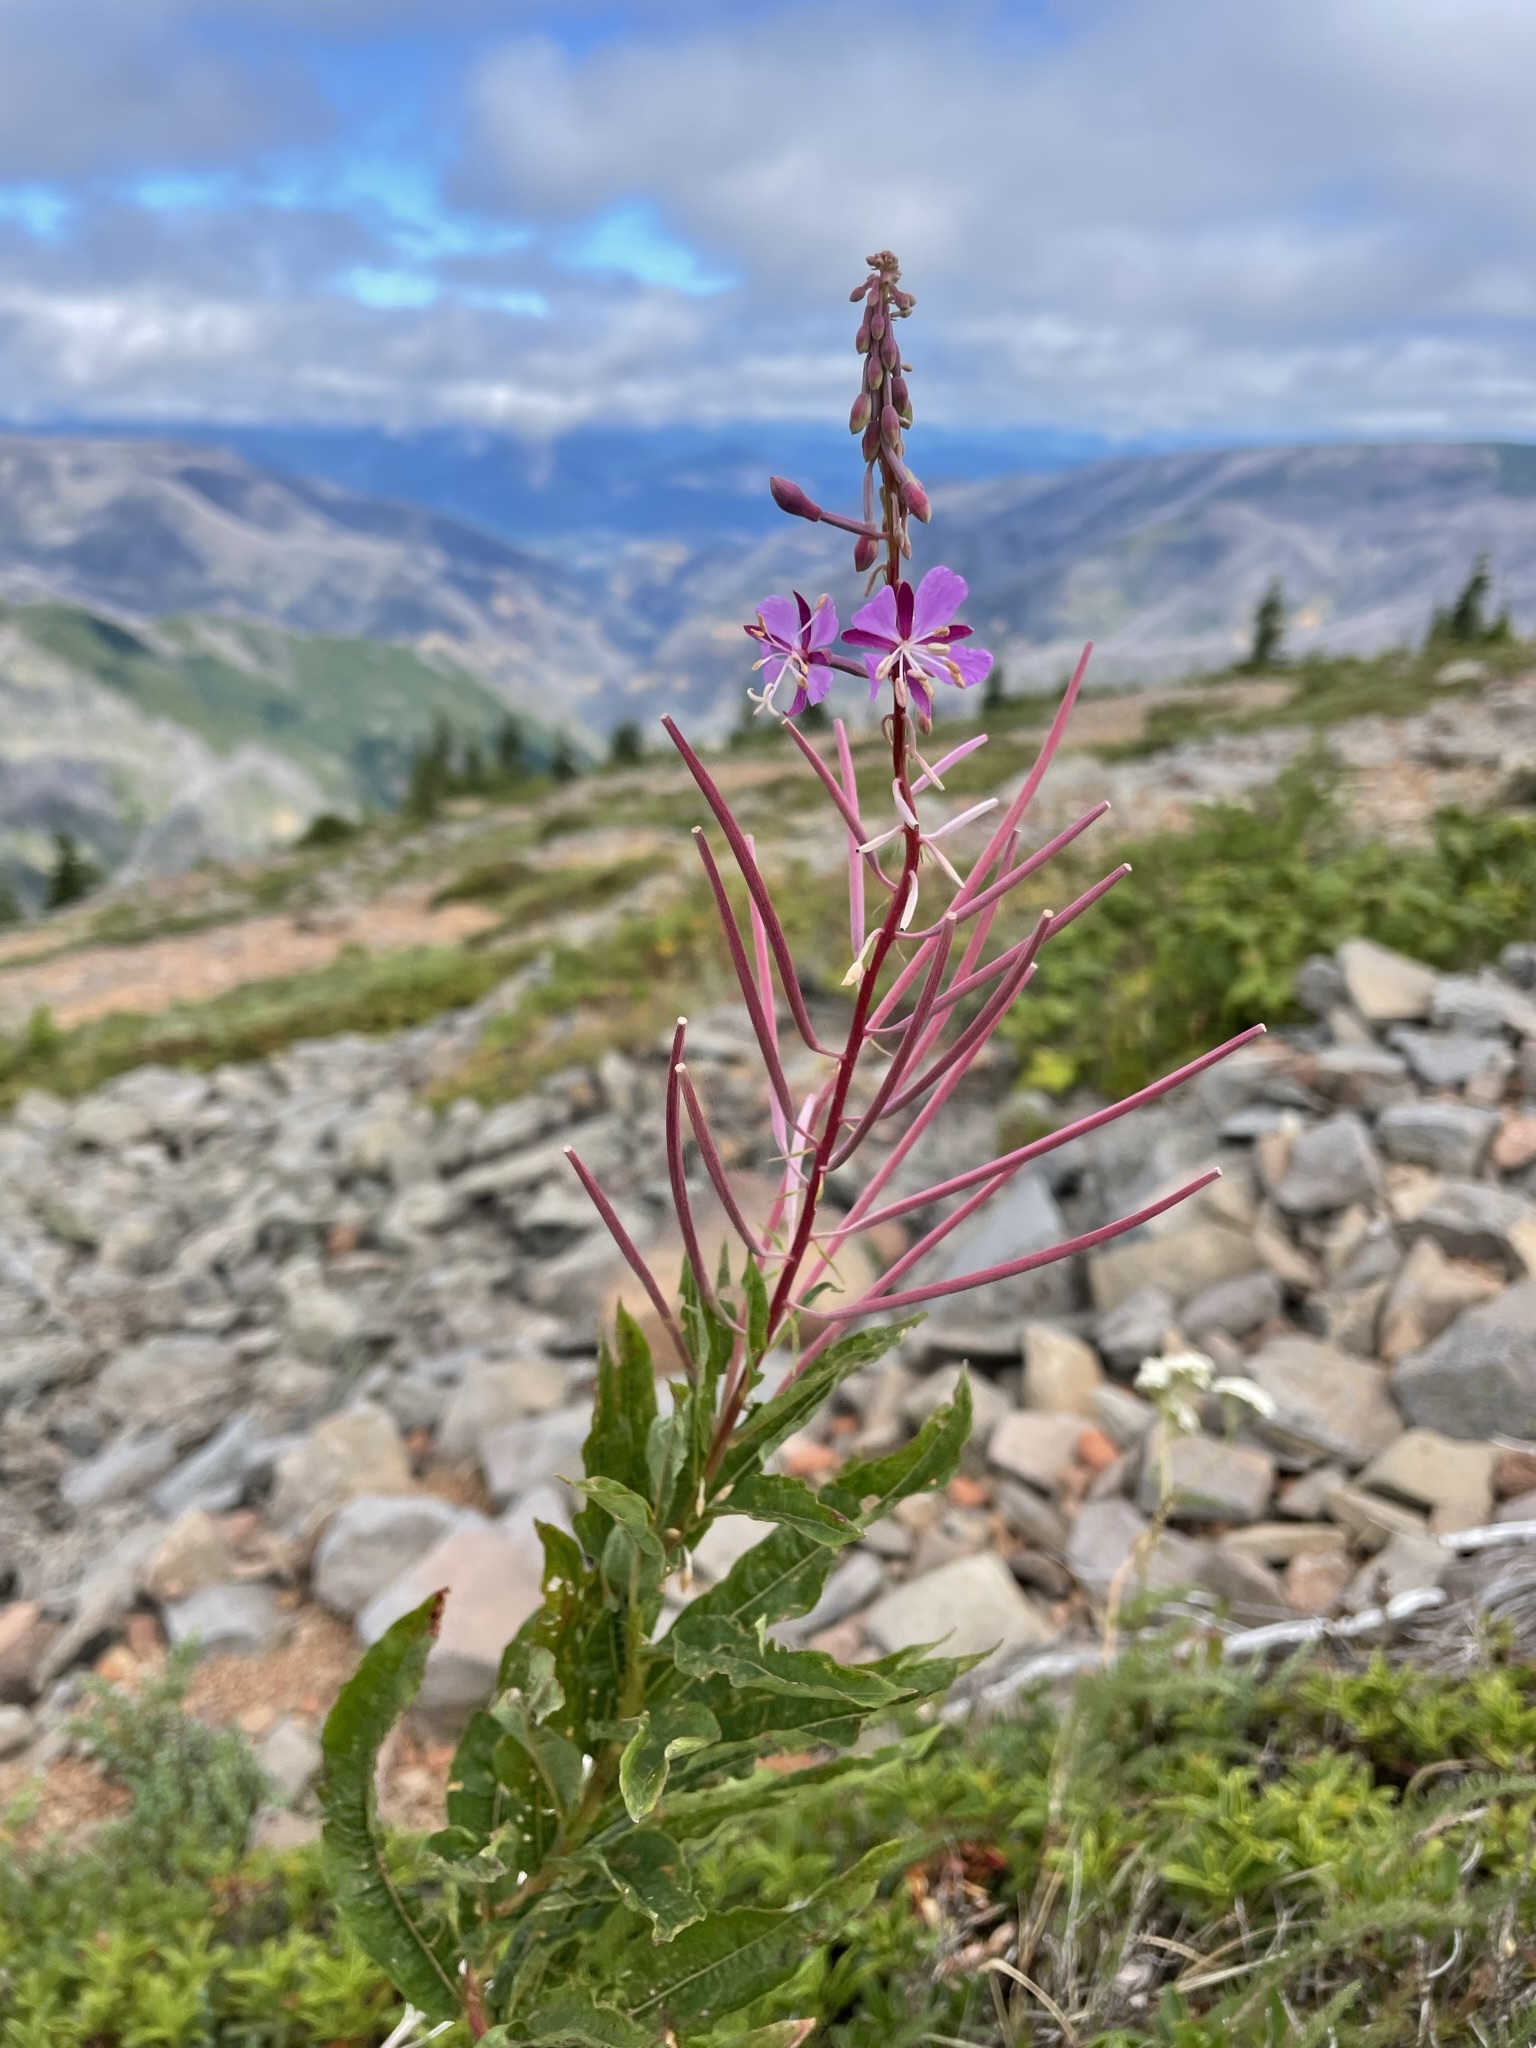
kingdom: Plantae
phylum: Tracheophyta
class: Magnoliopsida
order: Myrtales
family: Onagraceae
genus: Chamaenerion
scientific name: Chamaenerion angustifolium
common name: Fireweed
